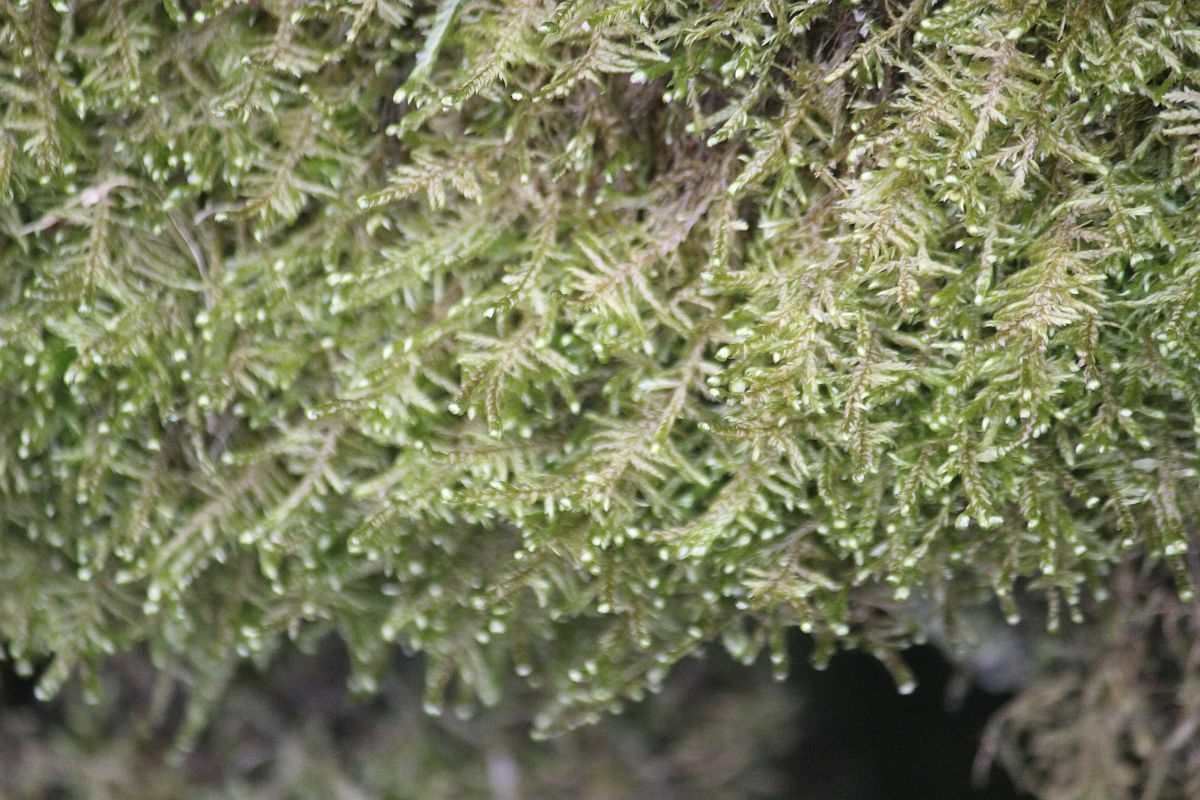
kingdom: Plantae
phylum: Bryophyta
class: Bryopsida
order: Hypnales
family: Neckeraceae
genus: Alleniella
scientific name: Alleniella complanata
